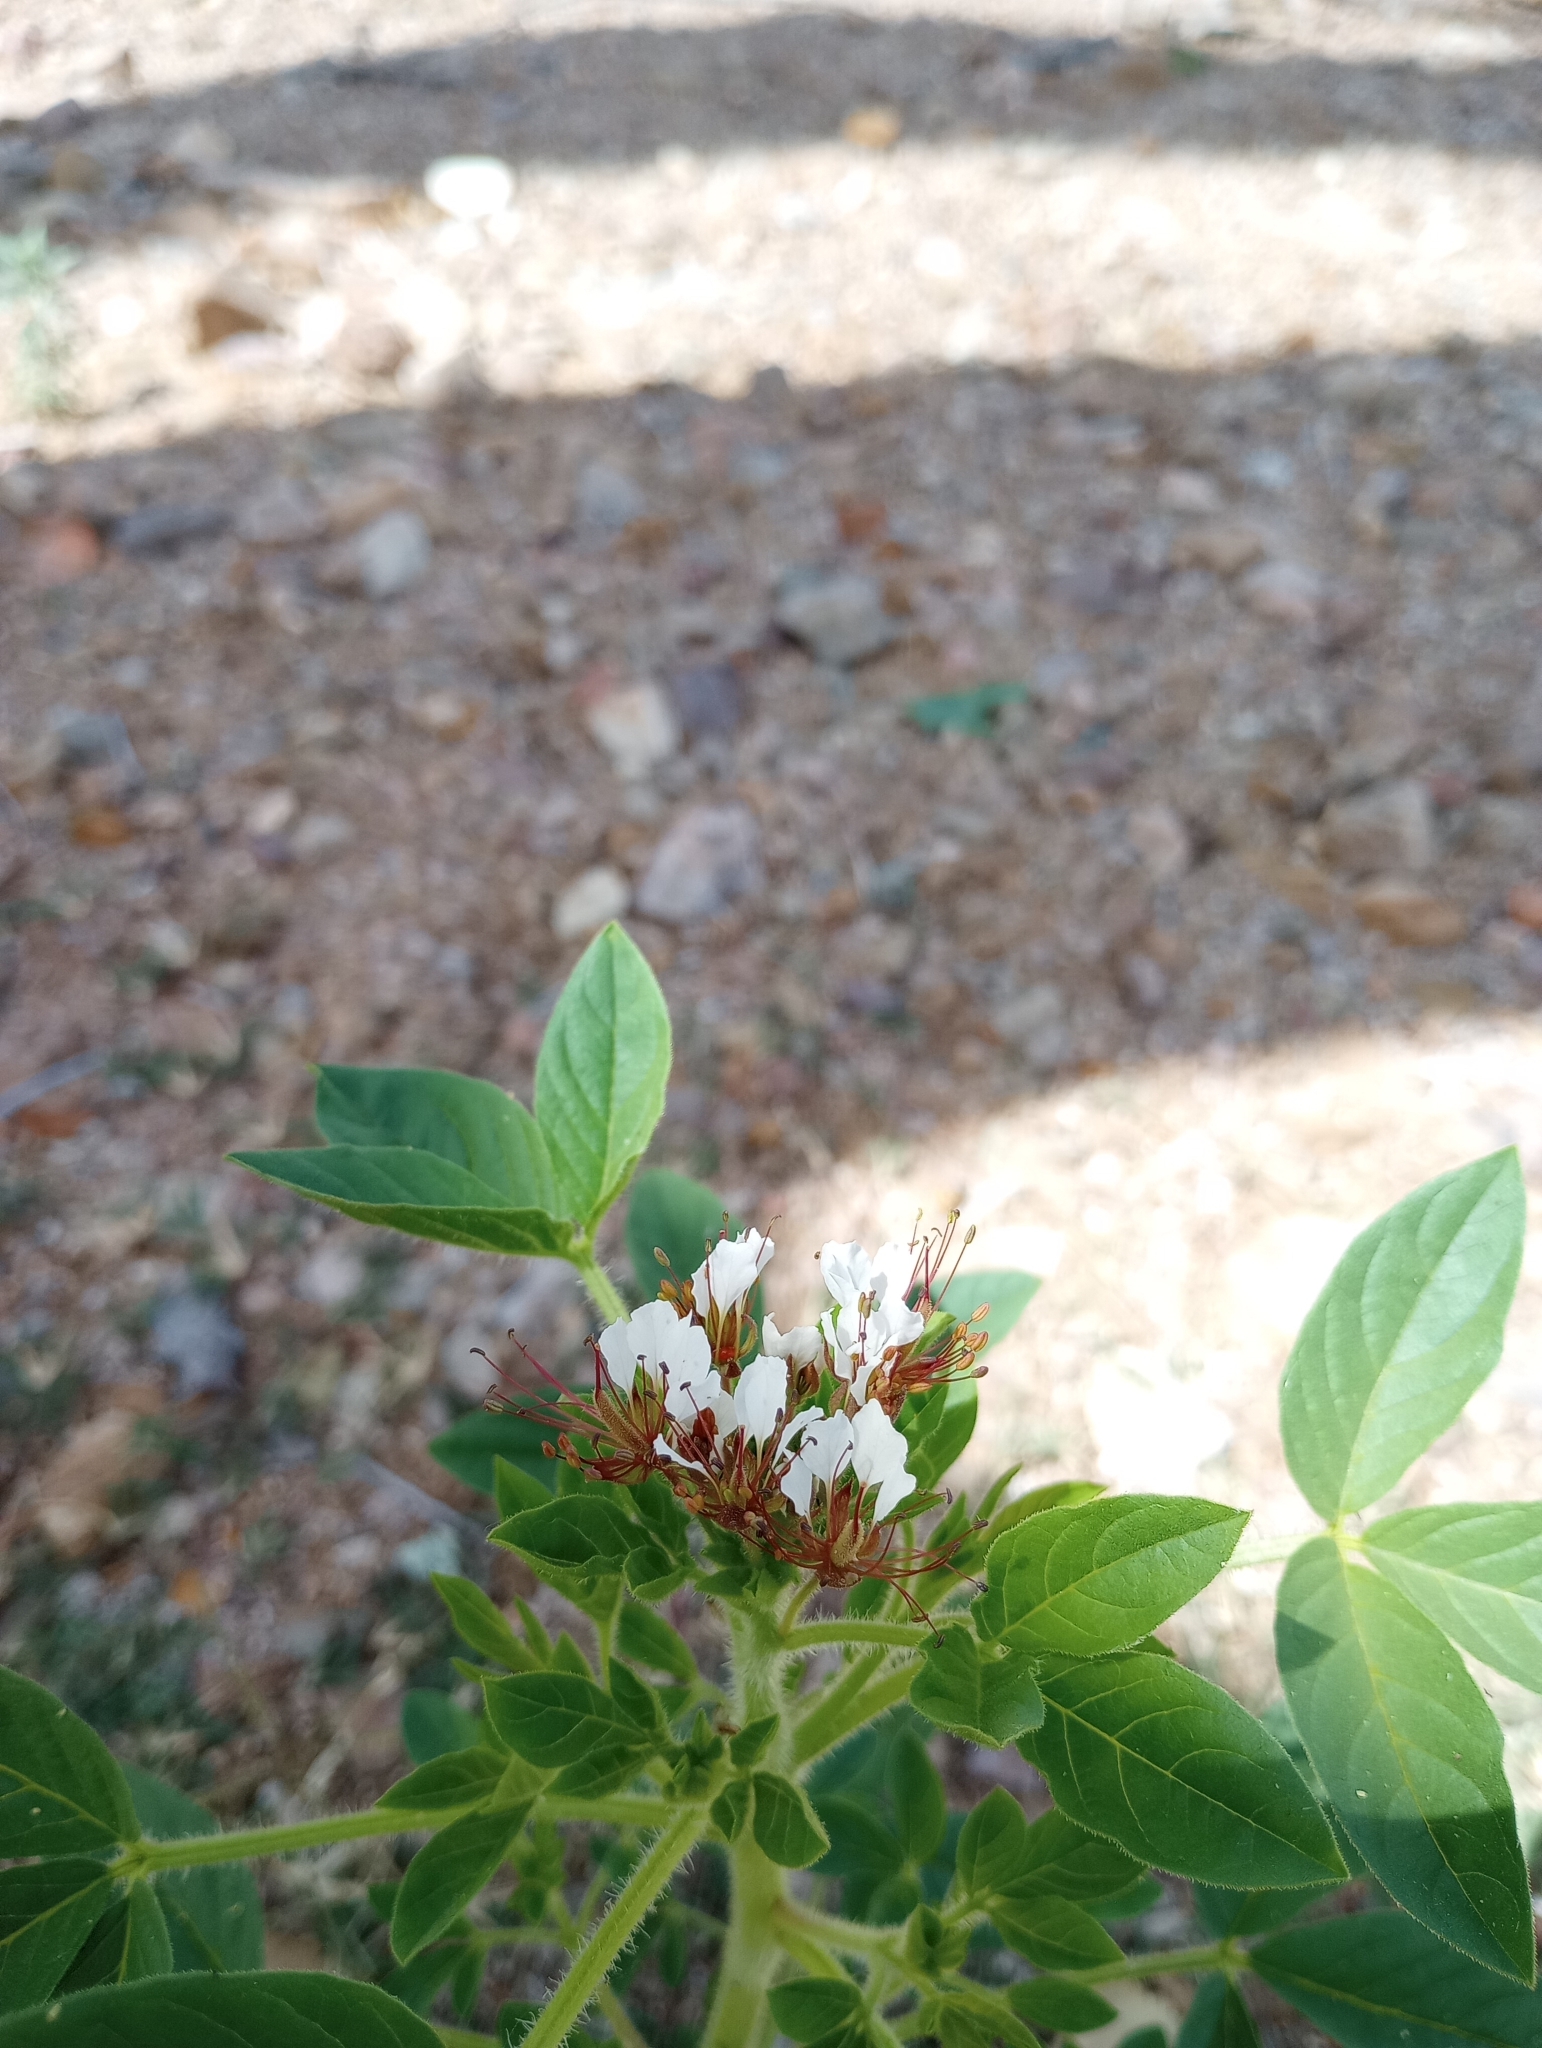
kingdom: Plantae
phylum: Tracheophyta
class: Magnoliopsida
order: Brassicales
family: Cleomaceae
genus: Polanisia
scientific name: Polanisia dodecandra
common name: Clammyweed
